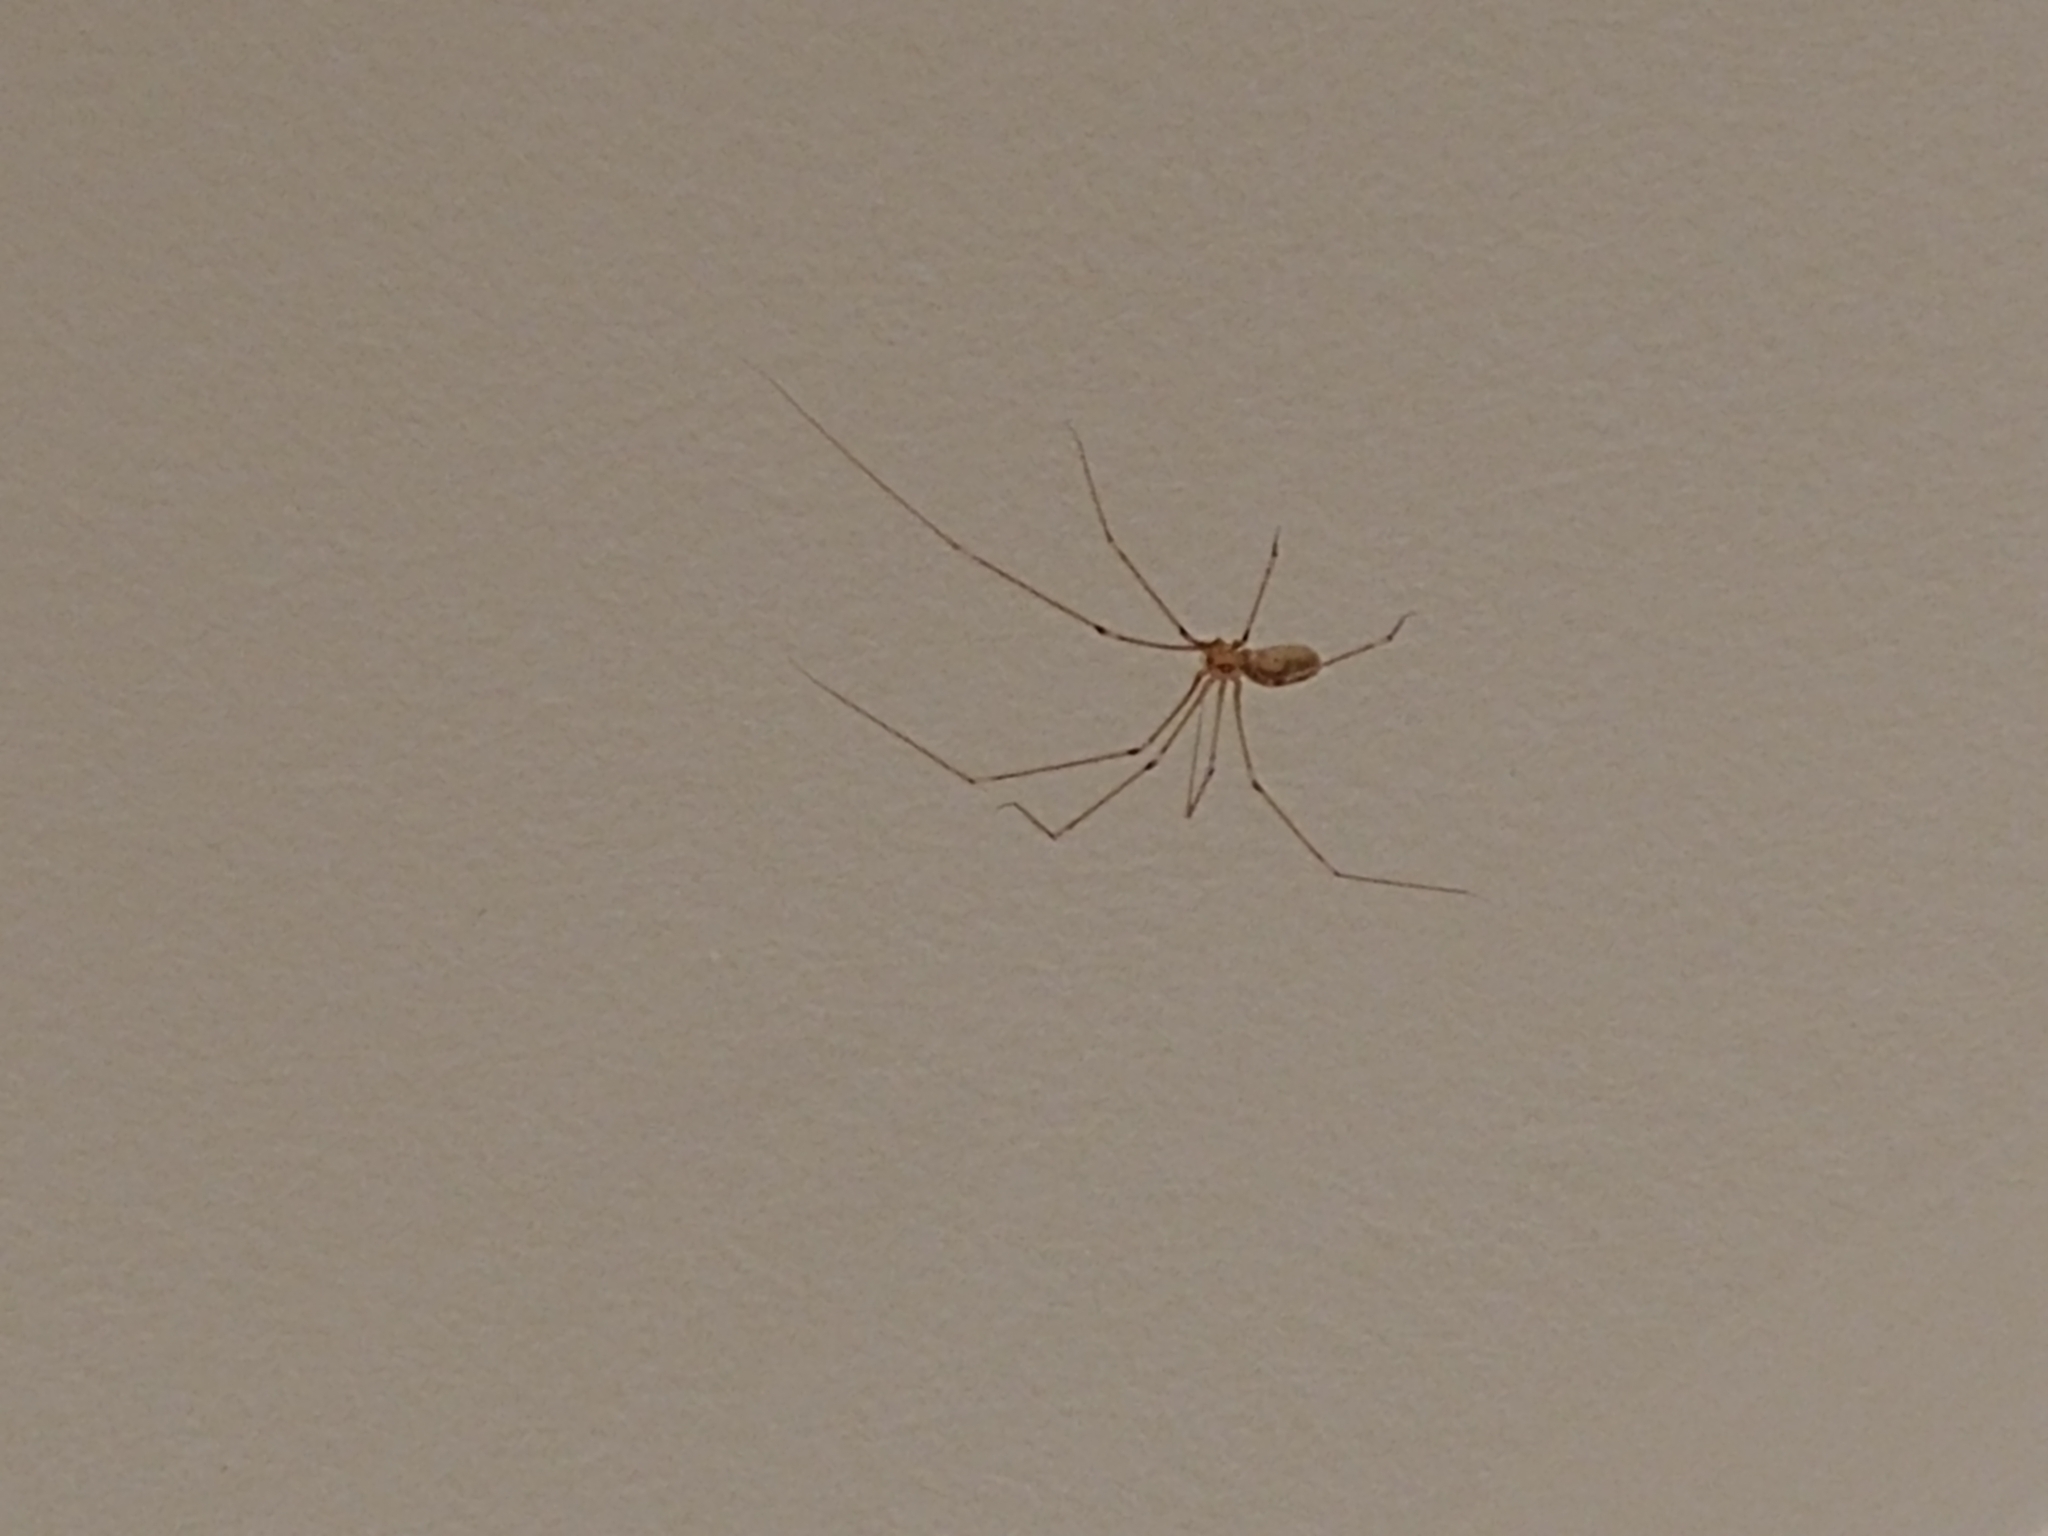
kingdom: Animalia
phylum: Arthropoda
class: Arachnida
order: Araneae
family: Pholcidae
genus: Pholcus
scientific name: Pholcus phalangioides
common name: Longbodied cellar spider
